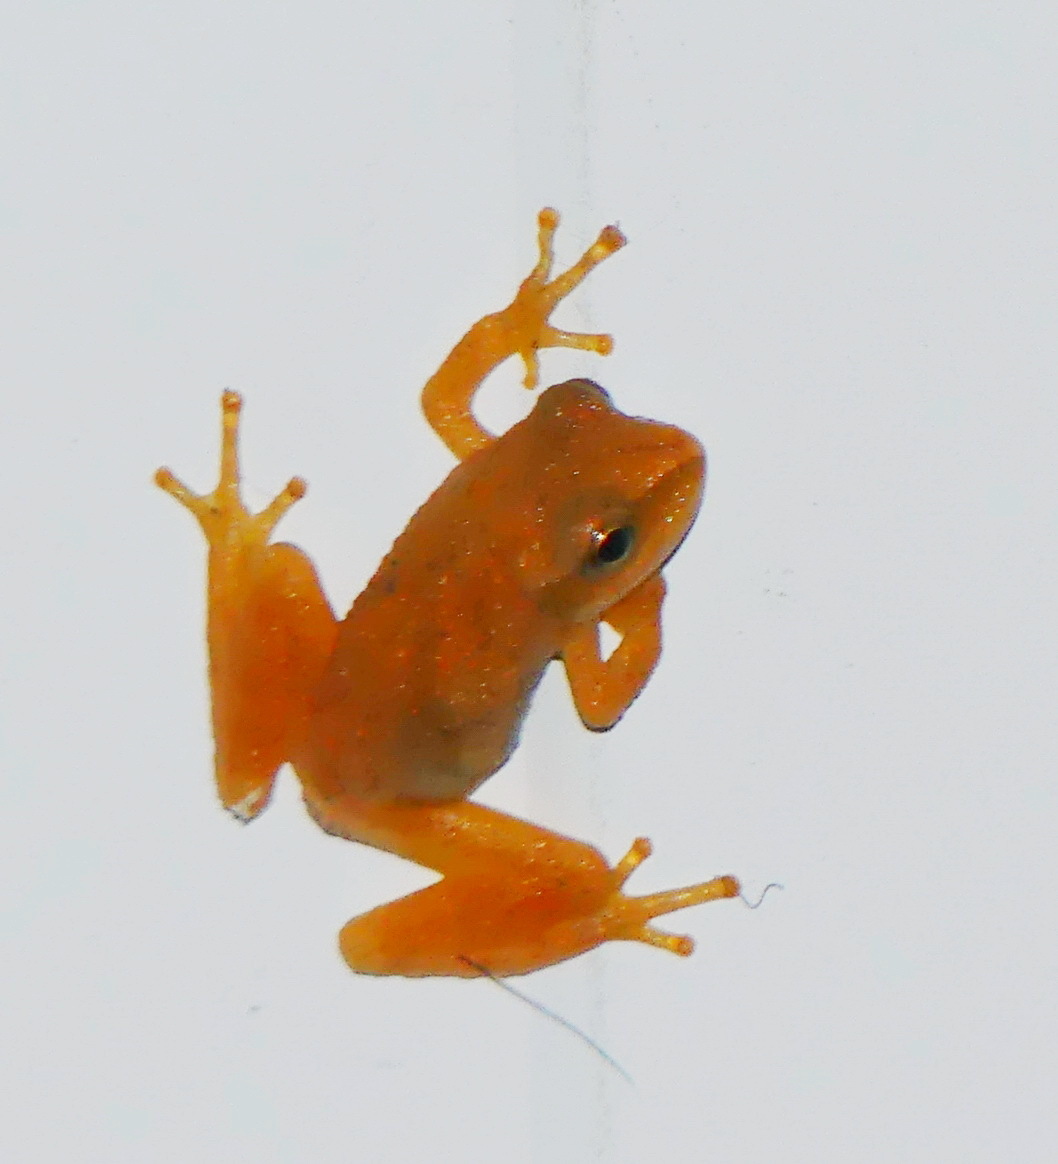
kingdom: Animalia
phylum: Chordata
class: Amphibia
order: Anura
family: Hylidae
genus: Pseudacris
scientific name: Pseudacris crucifer
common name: Spring peeper
